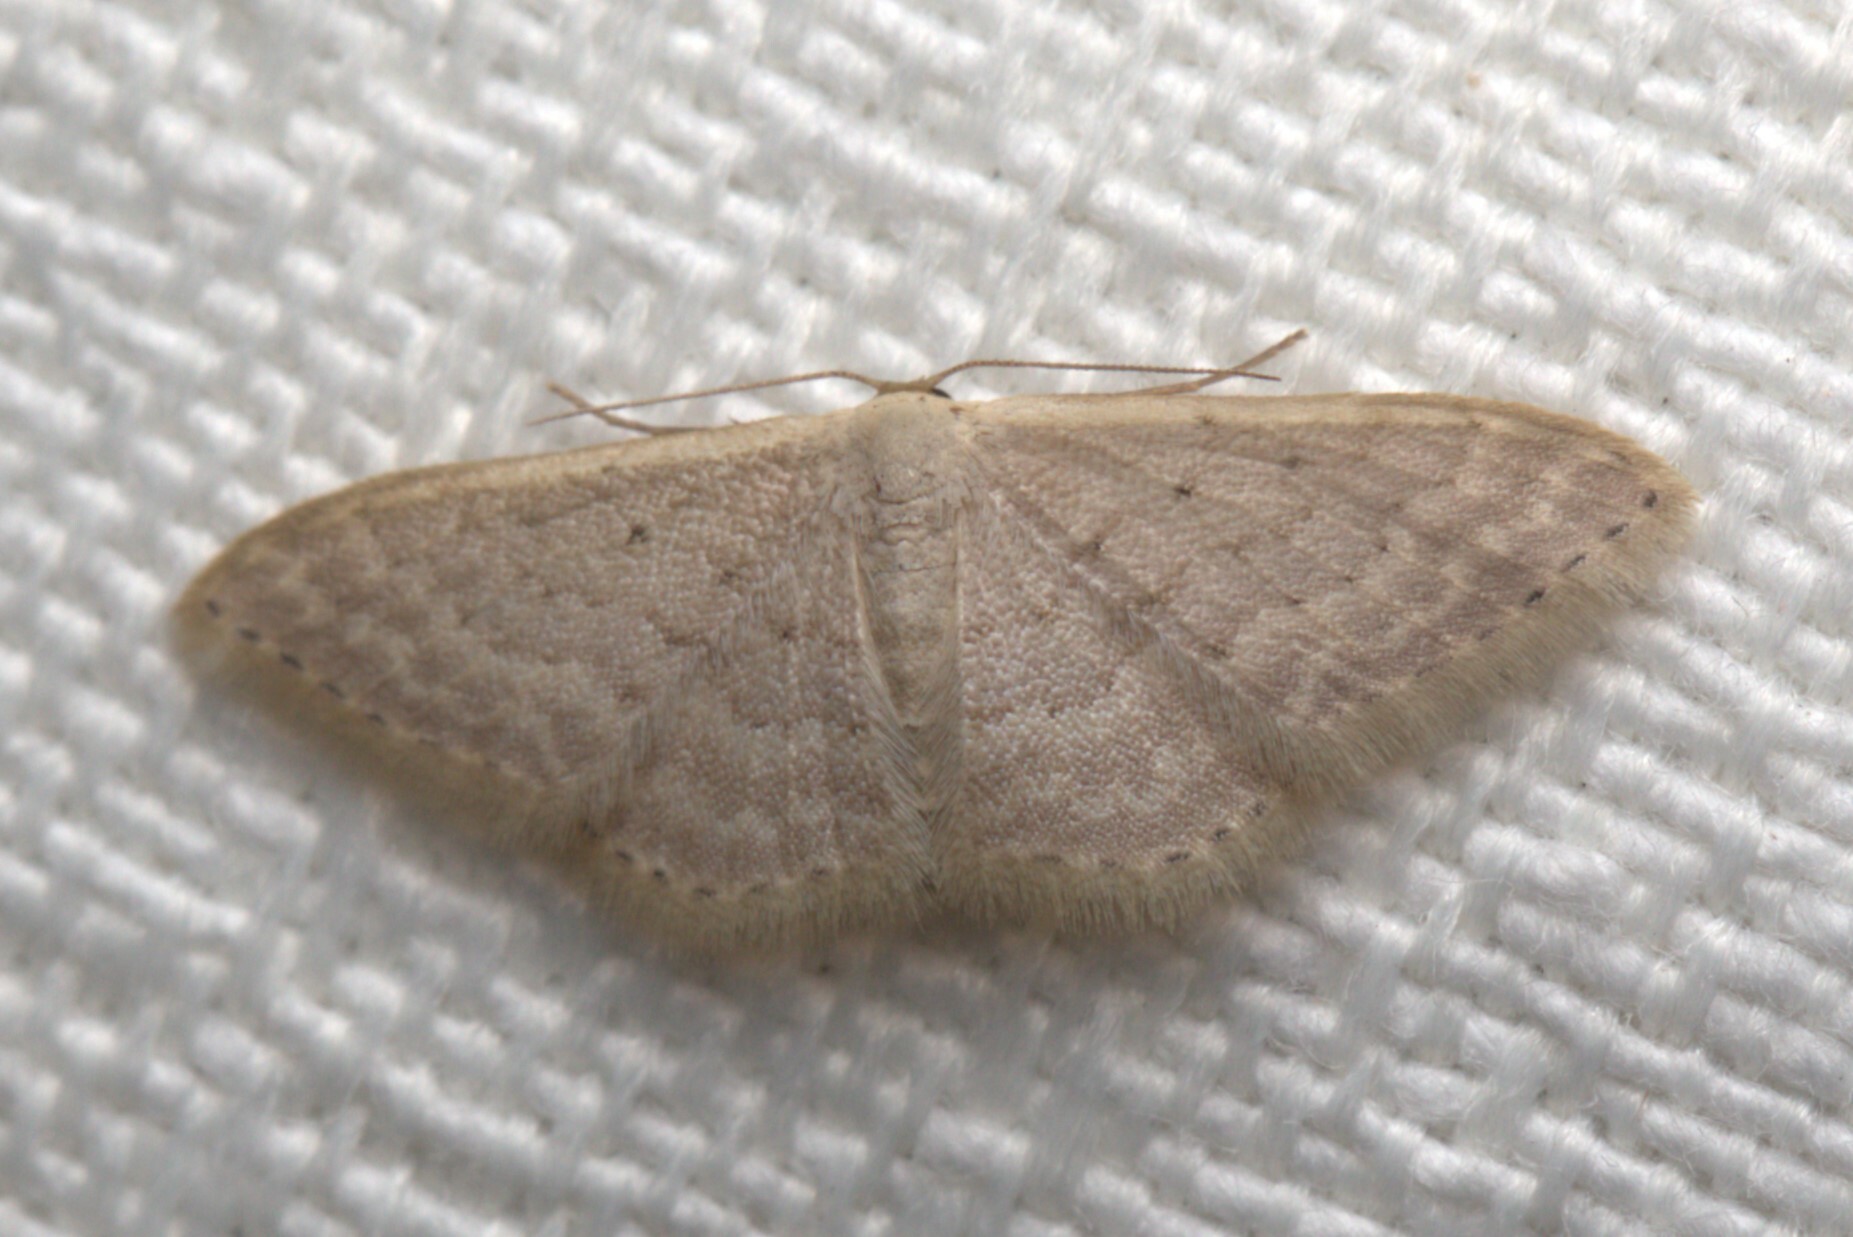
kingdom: Animalia
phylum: Arthropoda
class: Insecta
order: Lepidoptera
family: Geometridae
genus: Idaea
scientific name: Idaea eretmopus
